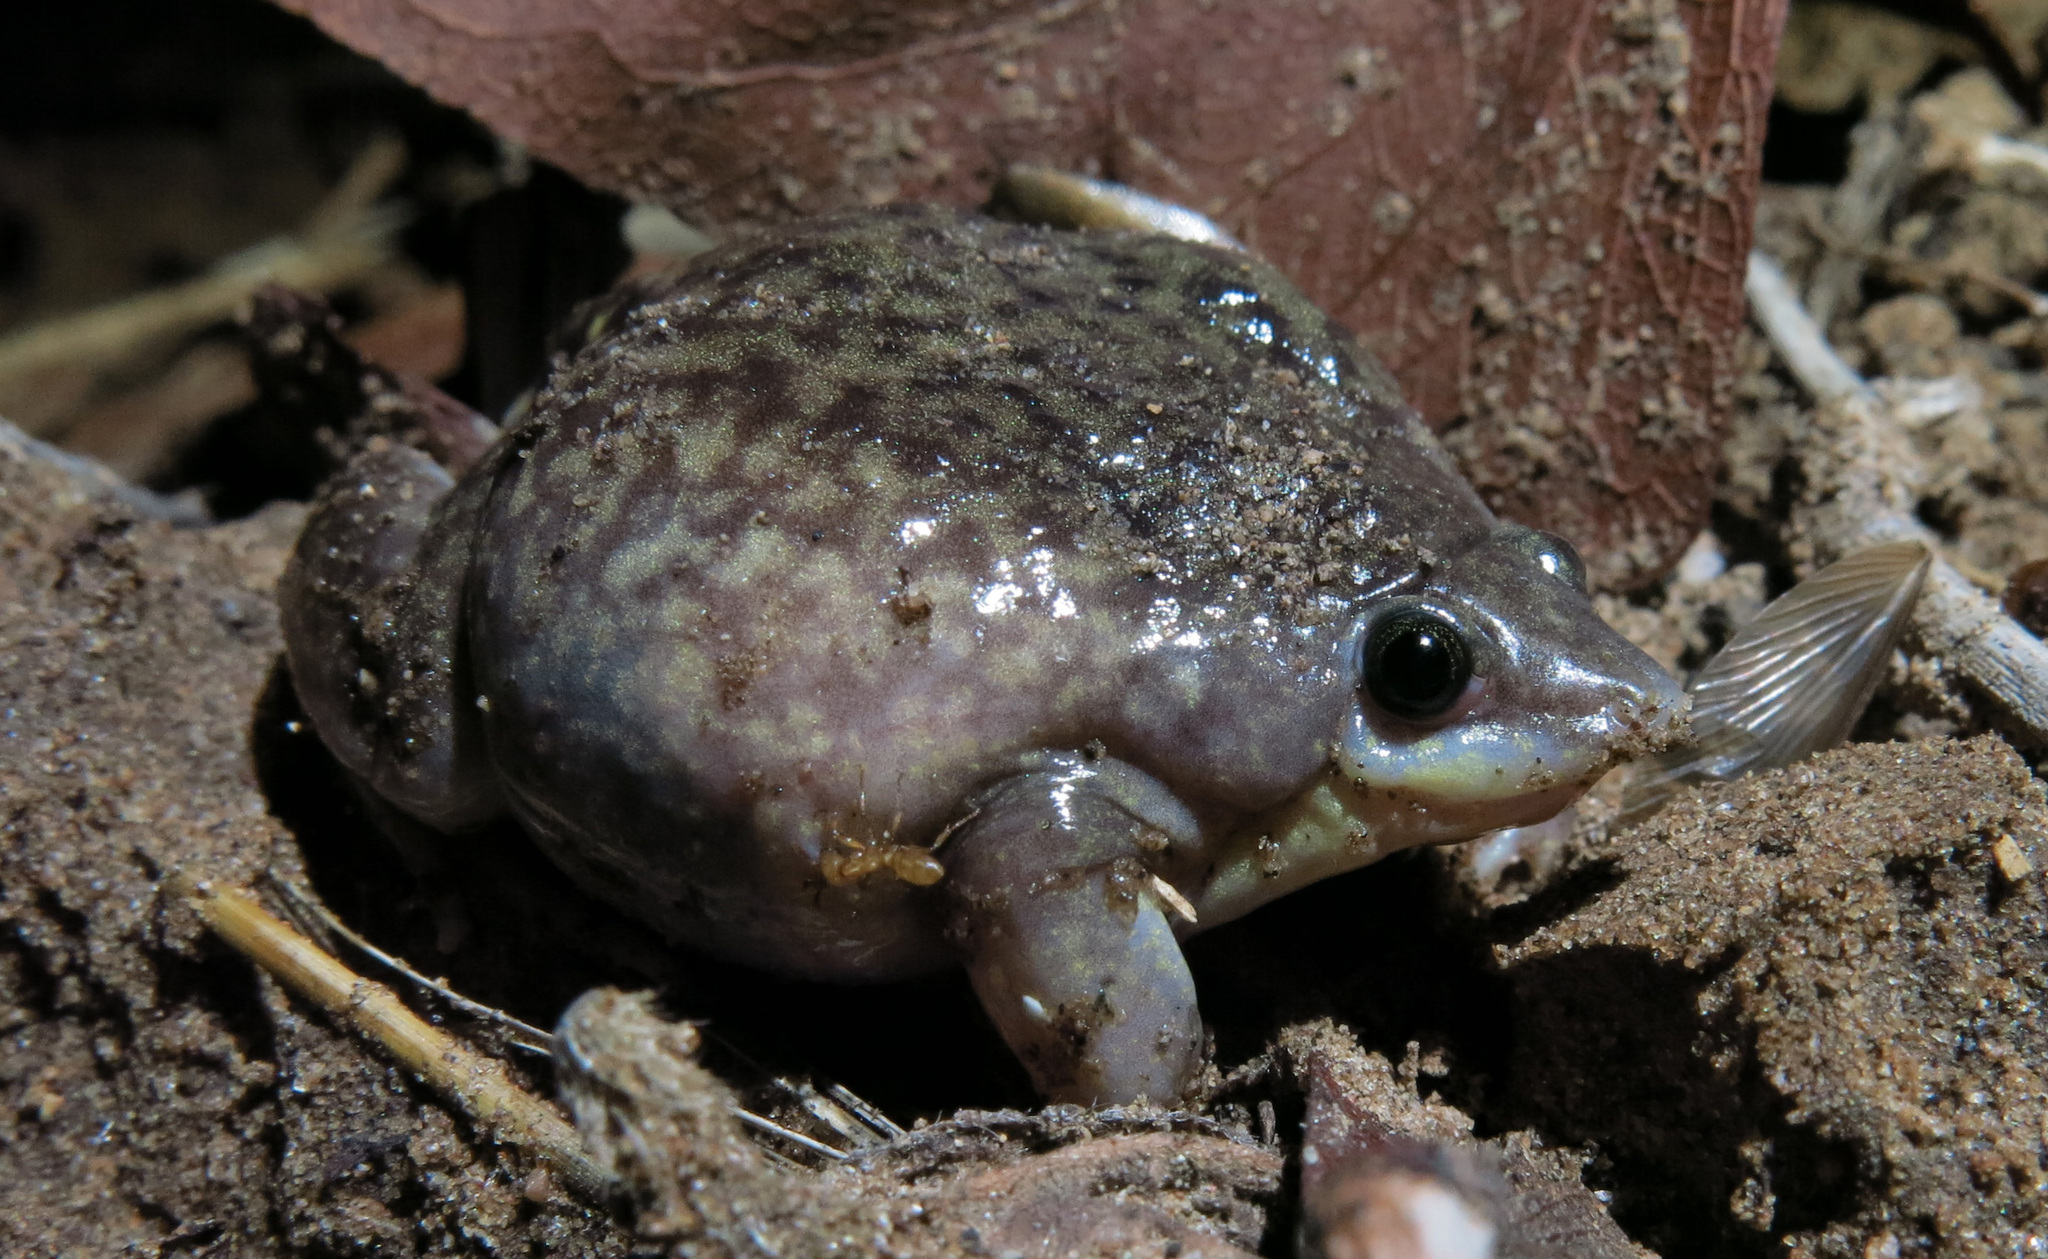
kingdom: Animalia
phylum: Chordata
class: Amphibia
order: Anura
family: Hemisotidae
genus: Hemisus
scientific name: Hemisus marmoratus
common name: Mottled shovel-nosed frog
